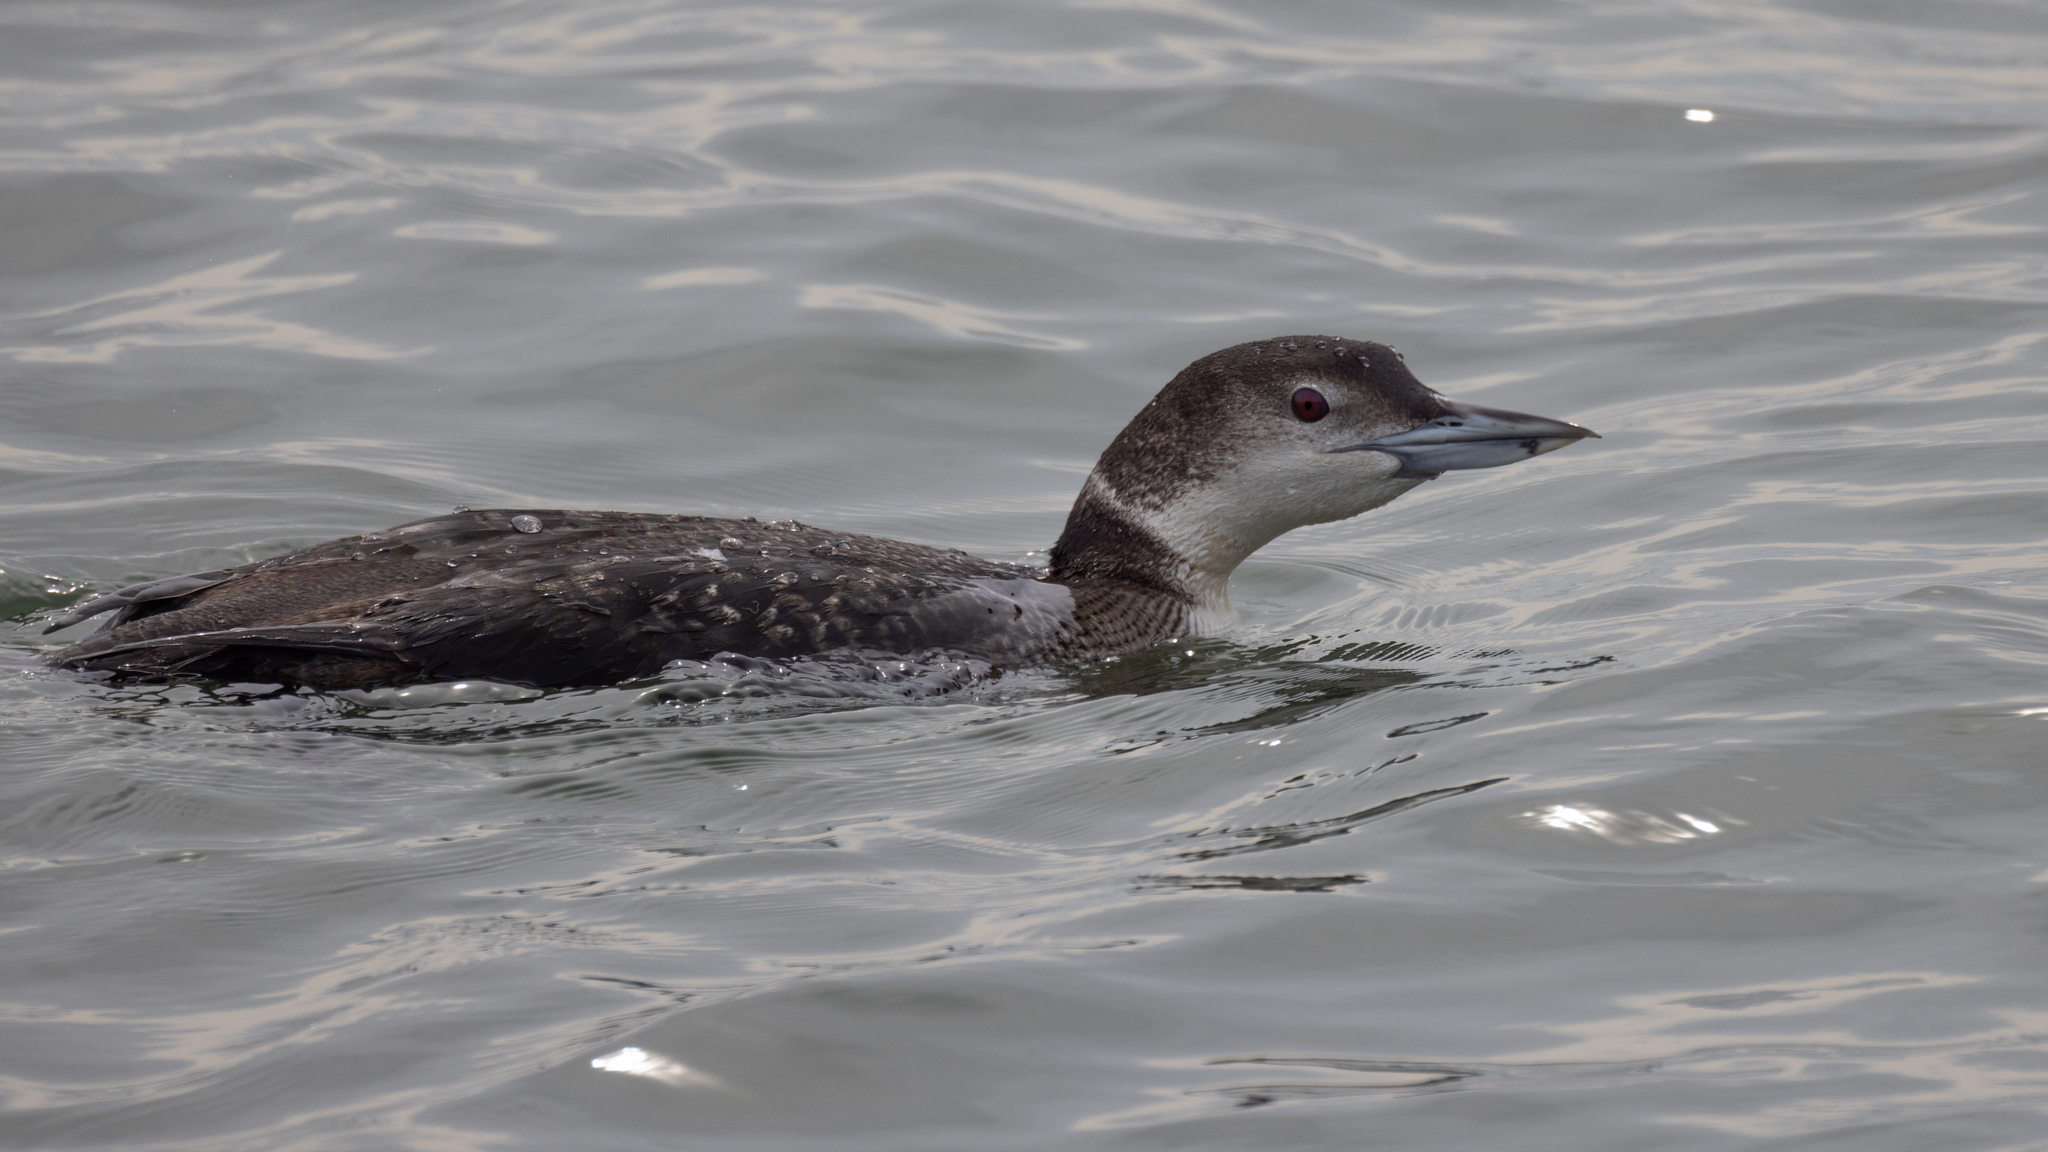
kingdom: Animalia
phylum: Chordata
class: Aves
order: Gaviiformes
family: Gaviidae
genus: Gavia
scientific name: Gavia immer
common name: Common loon
